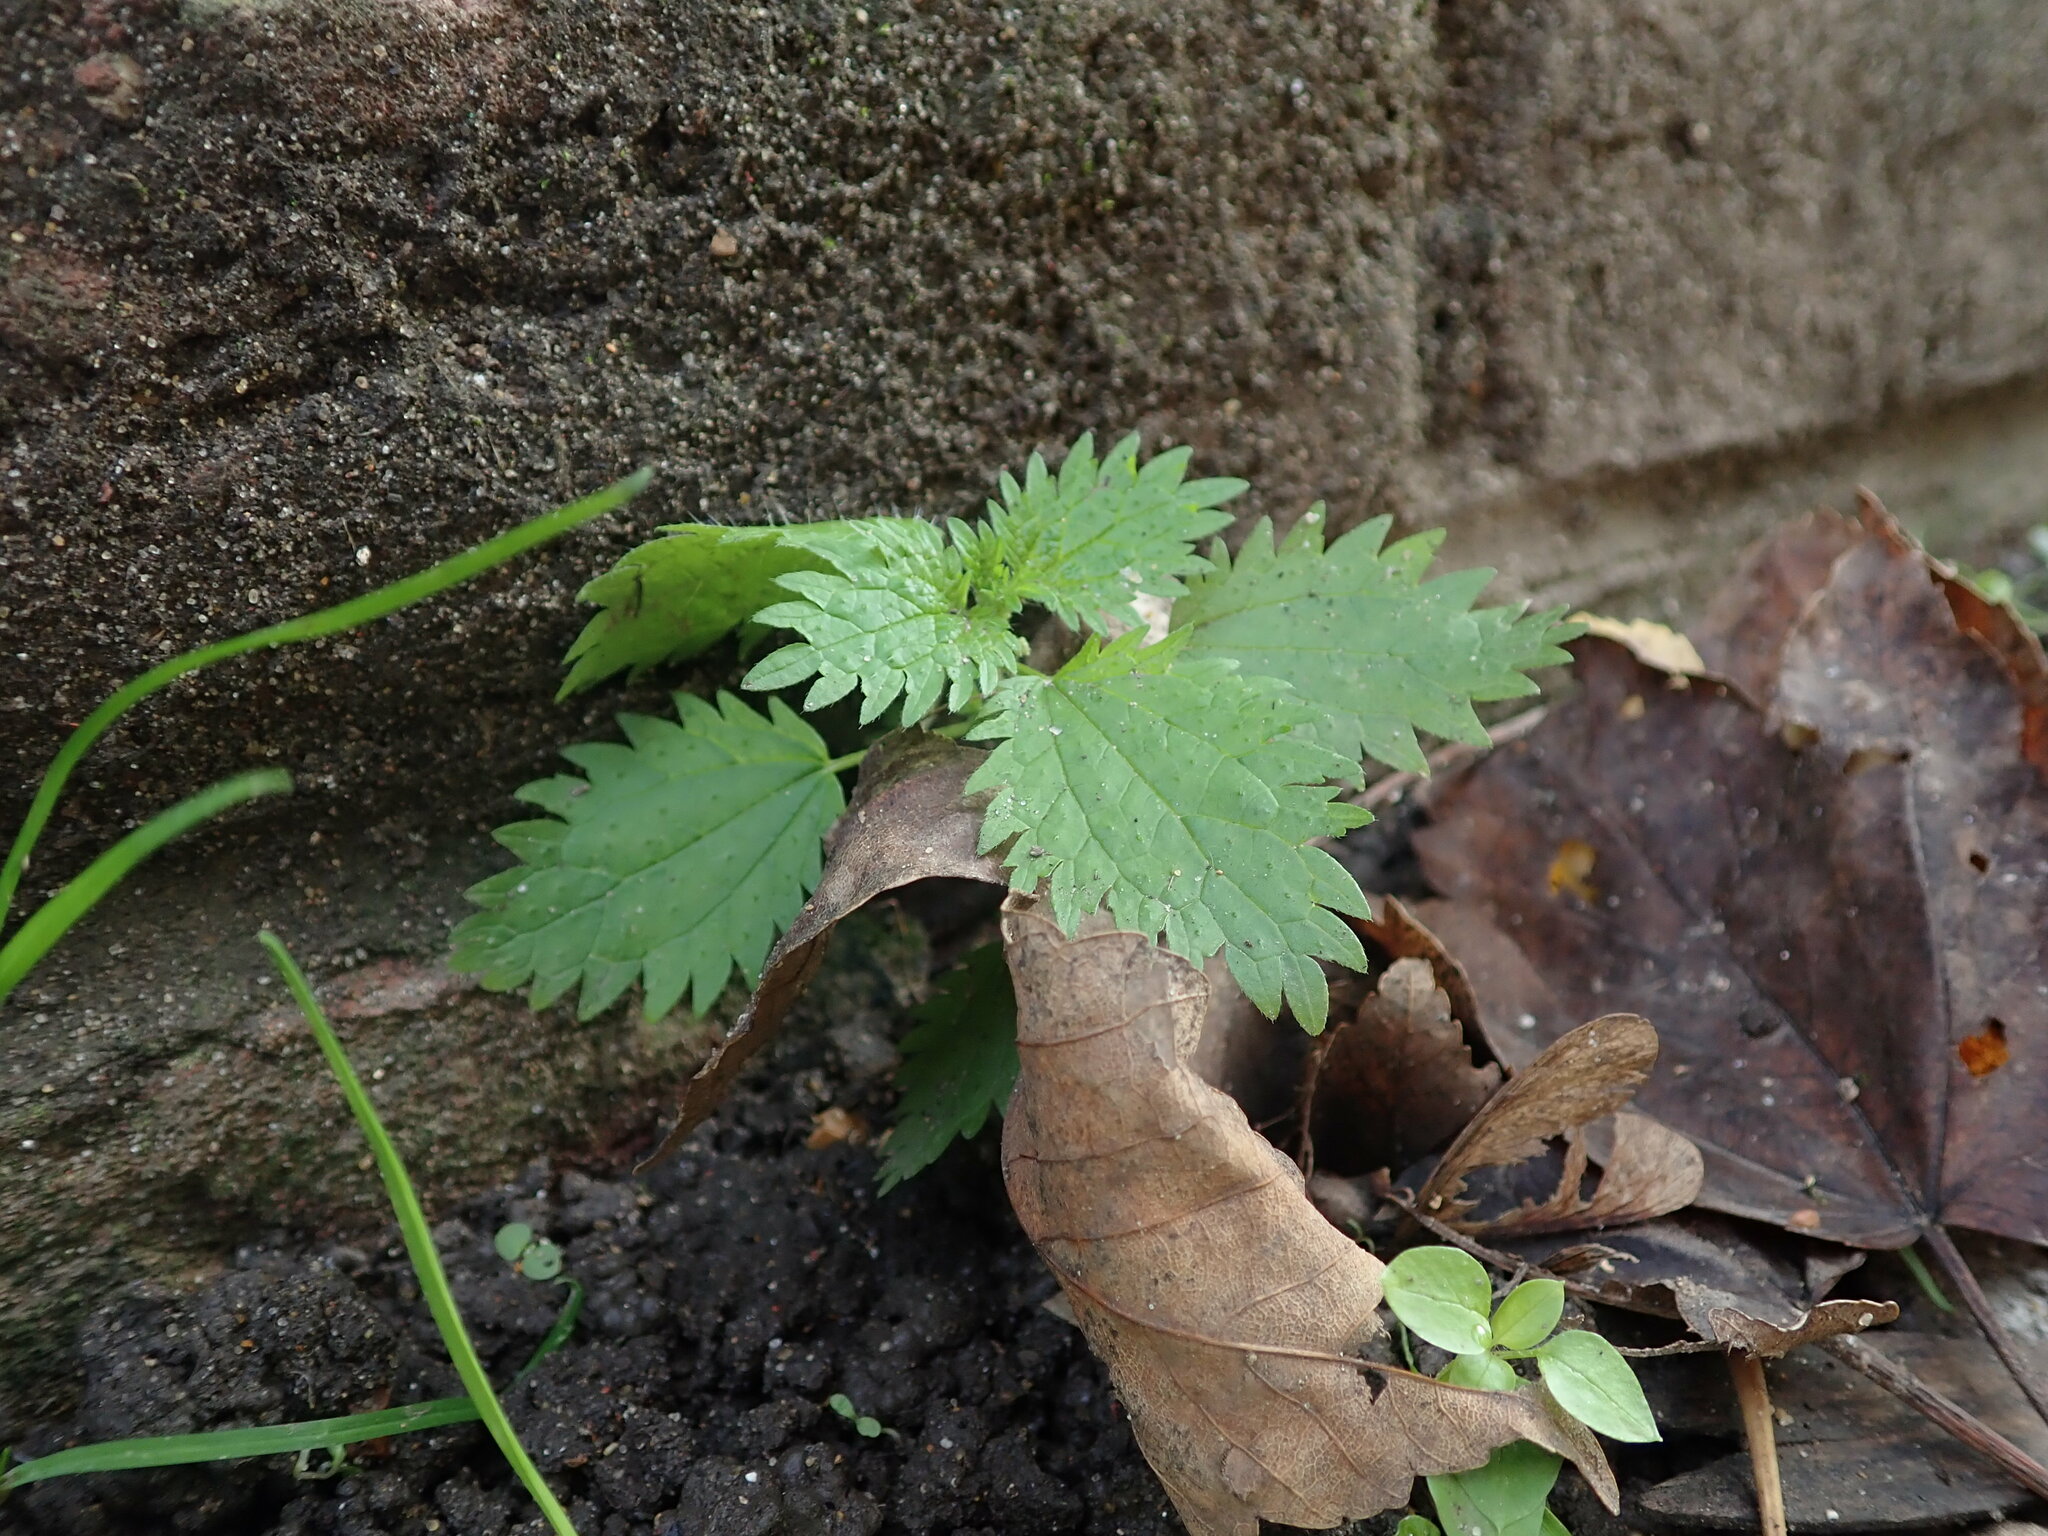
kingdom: Plantae
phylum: Tracheophyta
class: Magnoliopsida
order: Rosales
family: Urticaceae
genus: Urtica
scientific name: Urtica urens
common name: Dwarf nettle
